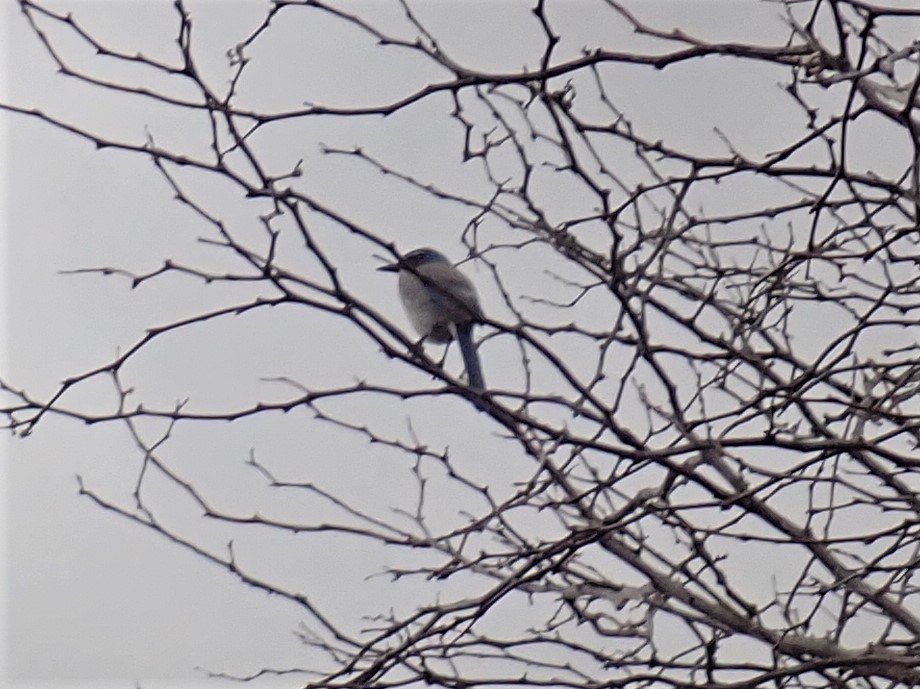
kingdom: Animalia
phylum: Chordata
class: Aves
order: Passeriformes
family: Corvidae
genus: Aphelocoma
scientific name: Aphelocoma californica
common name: California scrub-jay
